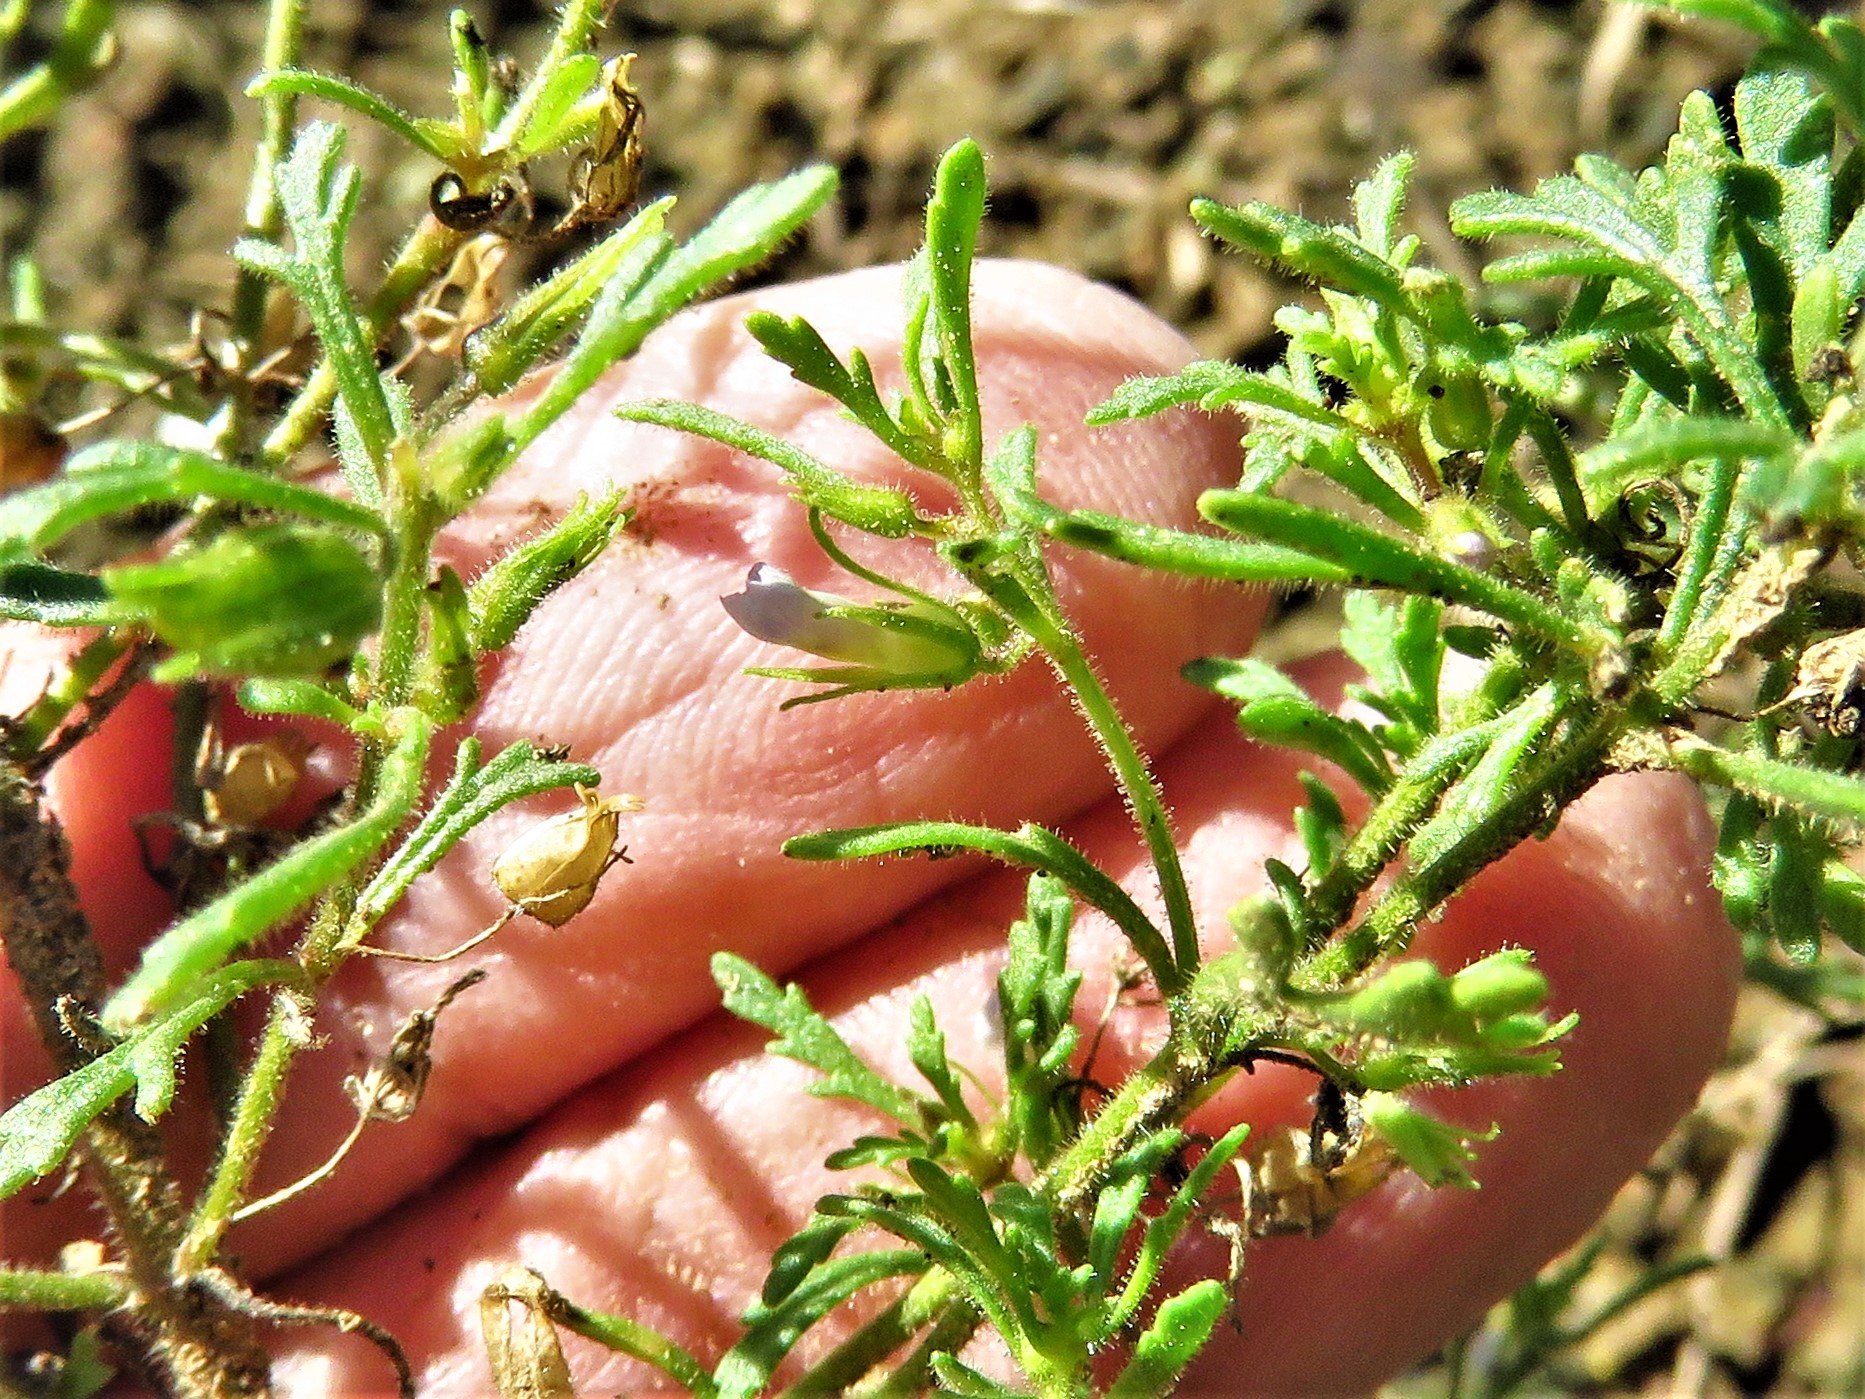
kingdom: Plantae
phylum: Tracheophyta
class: Magnoliopsida
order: Lamiales
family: Plantaginaceae
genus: Leucospora
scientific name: Leucospora multifida
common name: Narrow-leaf paleseed
